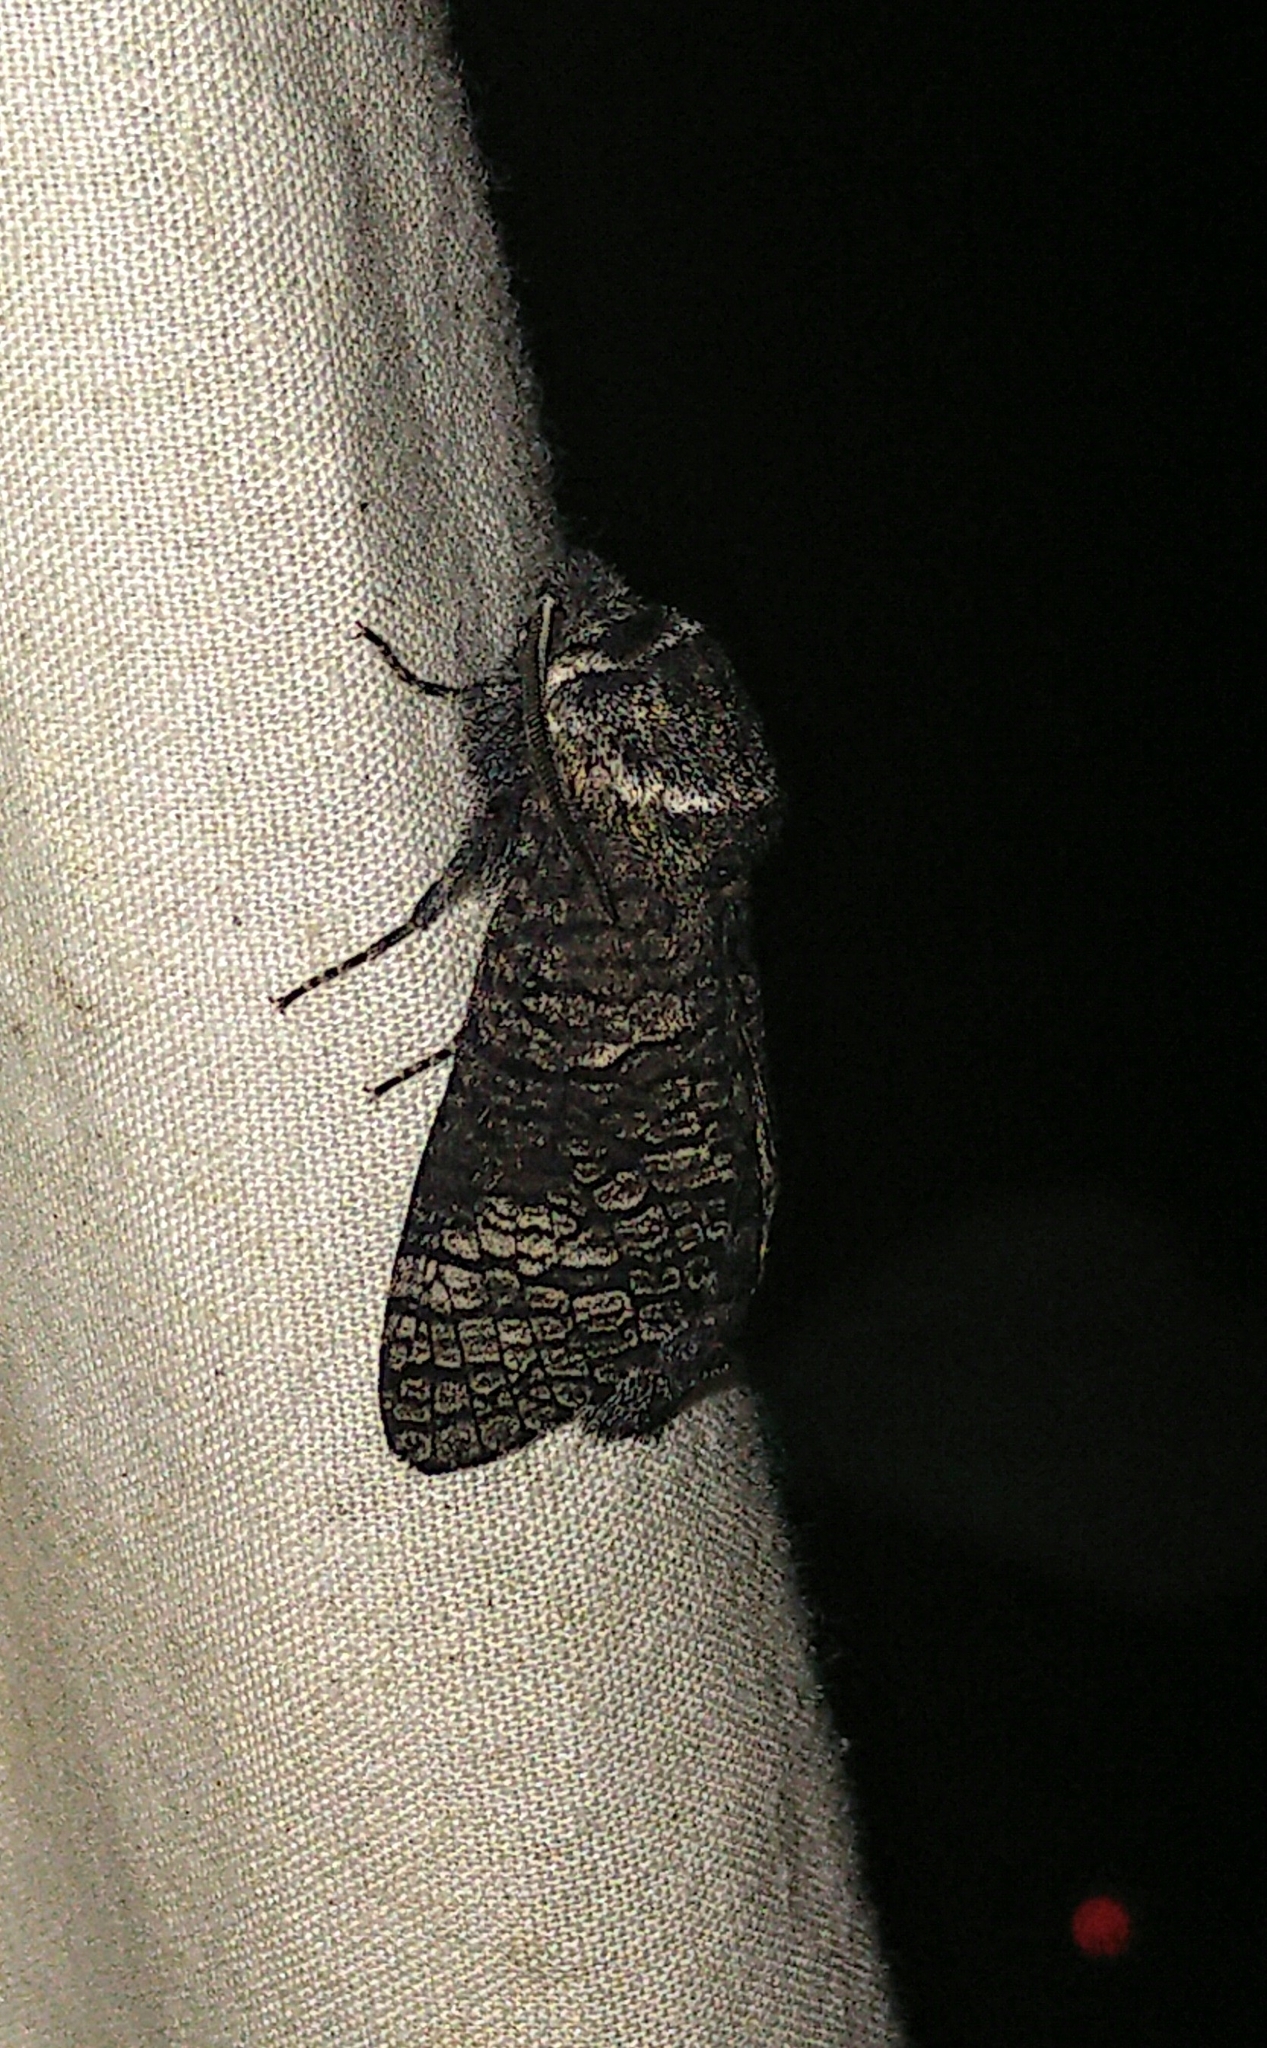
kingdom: Animalia
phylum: Arthropoda
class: Insecta
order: Lepidoptera
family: Cossidae
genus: Acossus
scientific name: Acossus centerensis
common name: Poplar carpenterworm moth
